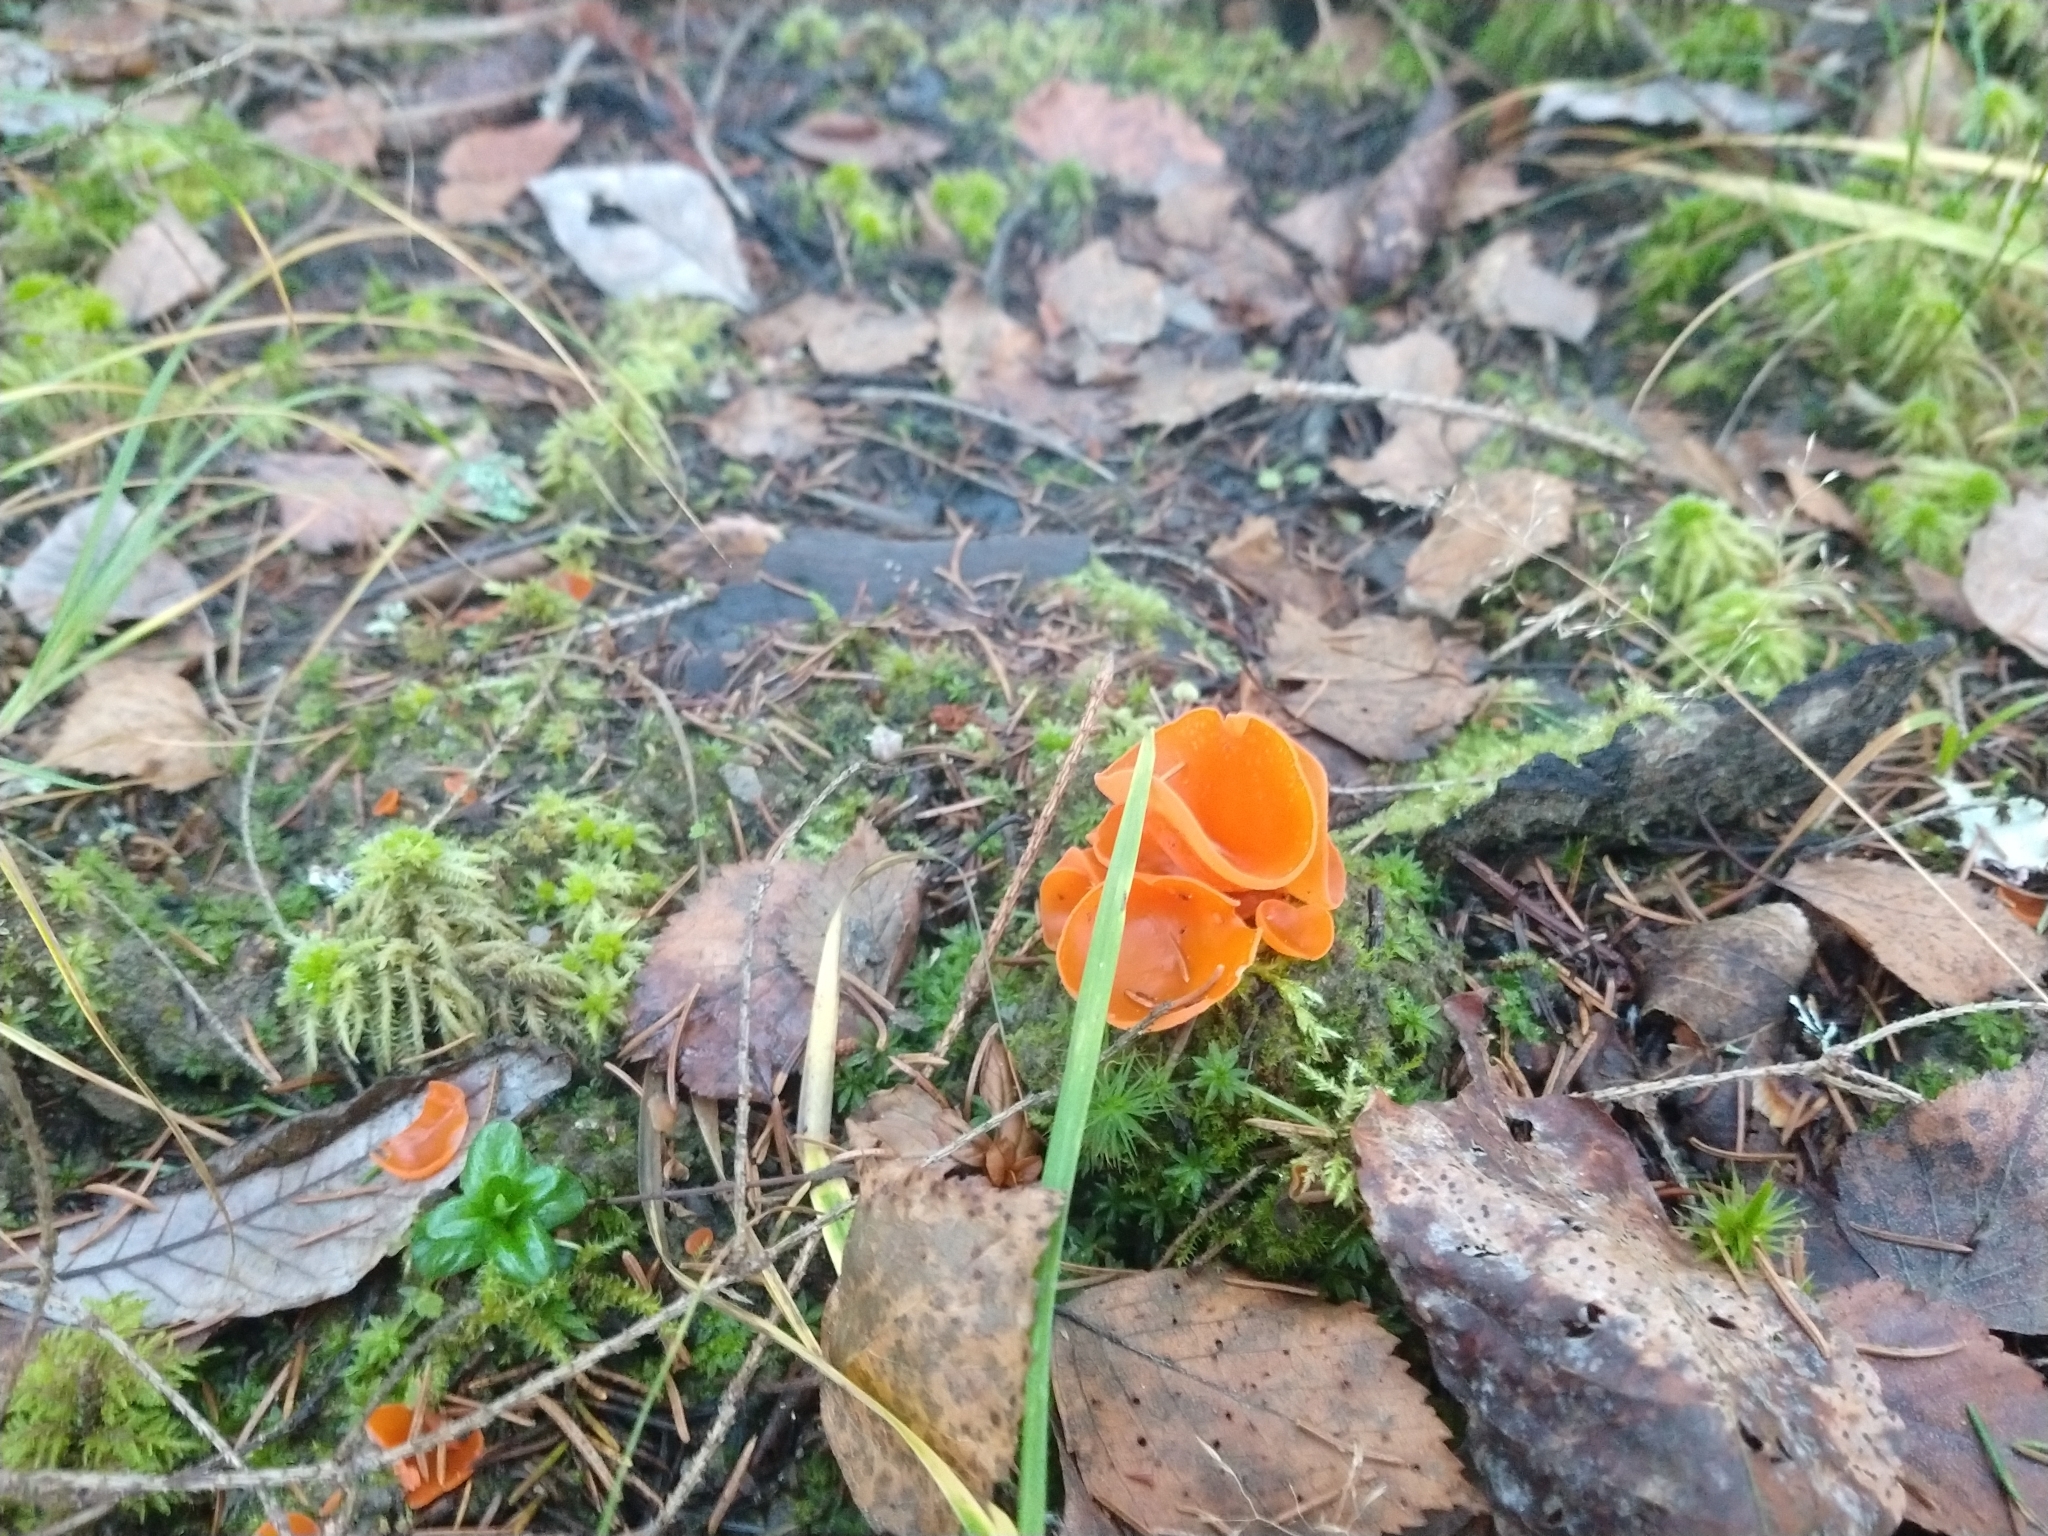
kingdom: Fungi
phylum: Ascomycota
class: Pezizomycetes
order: Pezizales
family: Pyronemataceae
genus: Aleuria
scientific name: Aleuria aurantia
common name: Orange peel fungus
